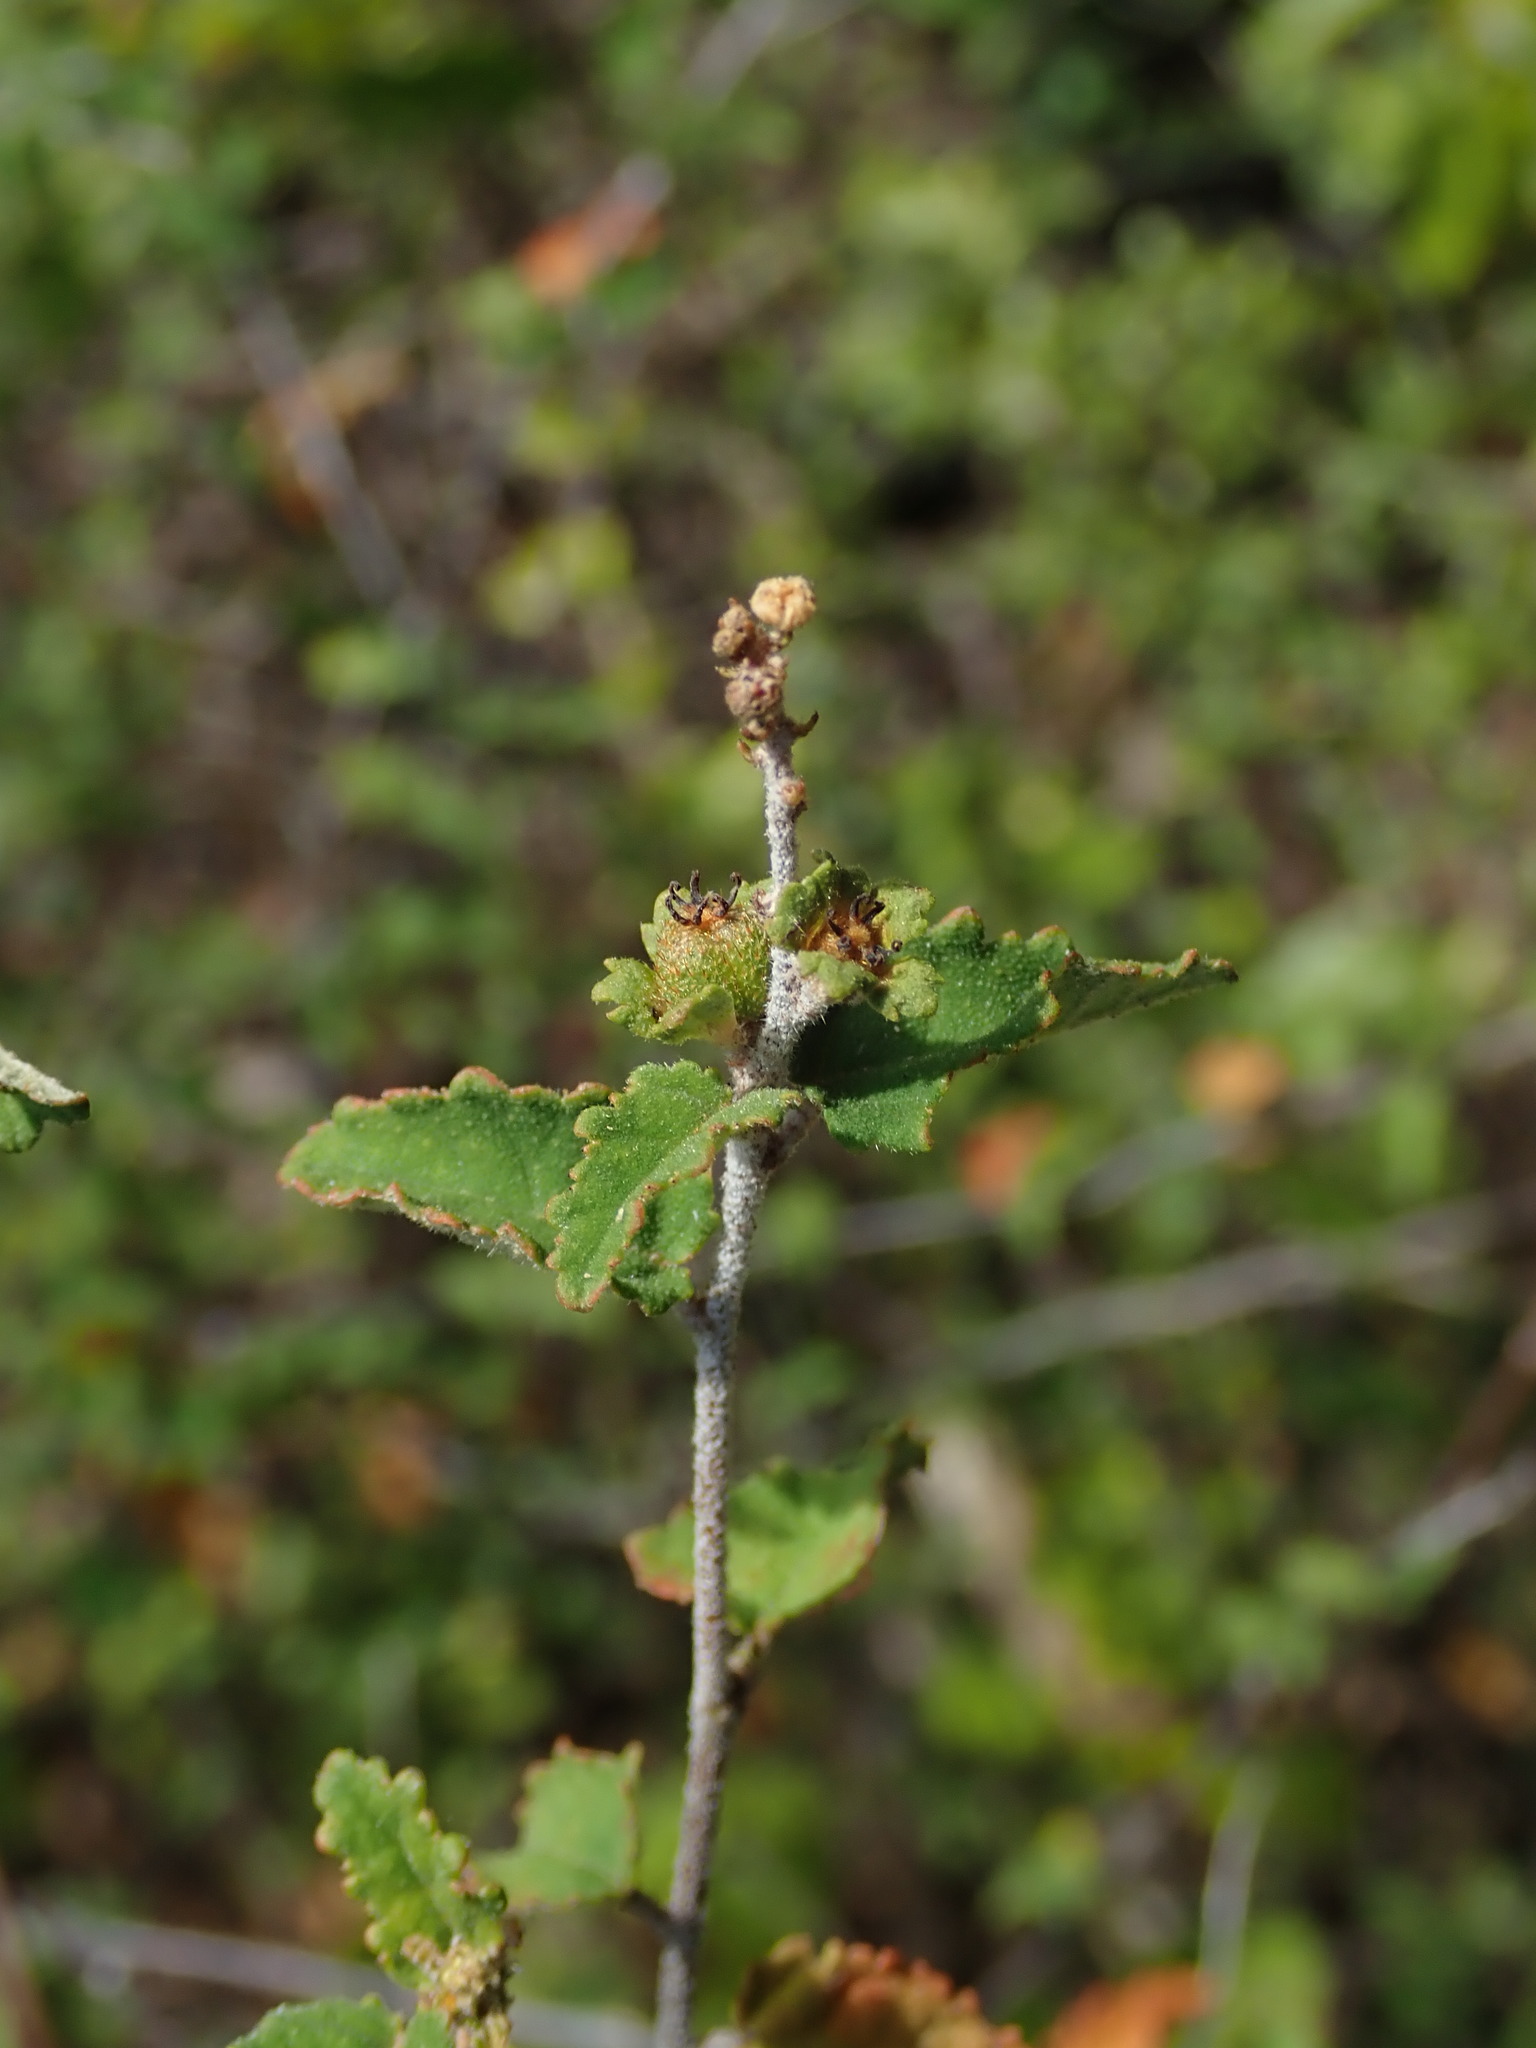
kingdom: Plantae
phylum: Tracheophyta
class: Magnoliopsida
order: Malpighiales
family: Euphorbiaceae
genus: Croton
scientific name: Croton betulinus
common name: Black sage
